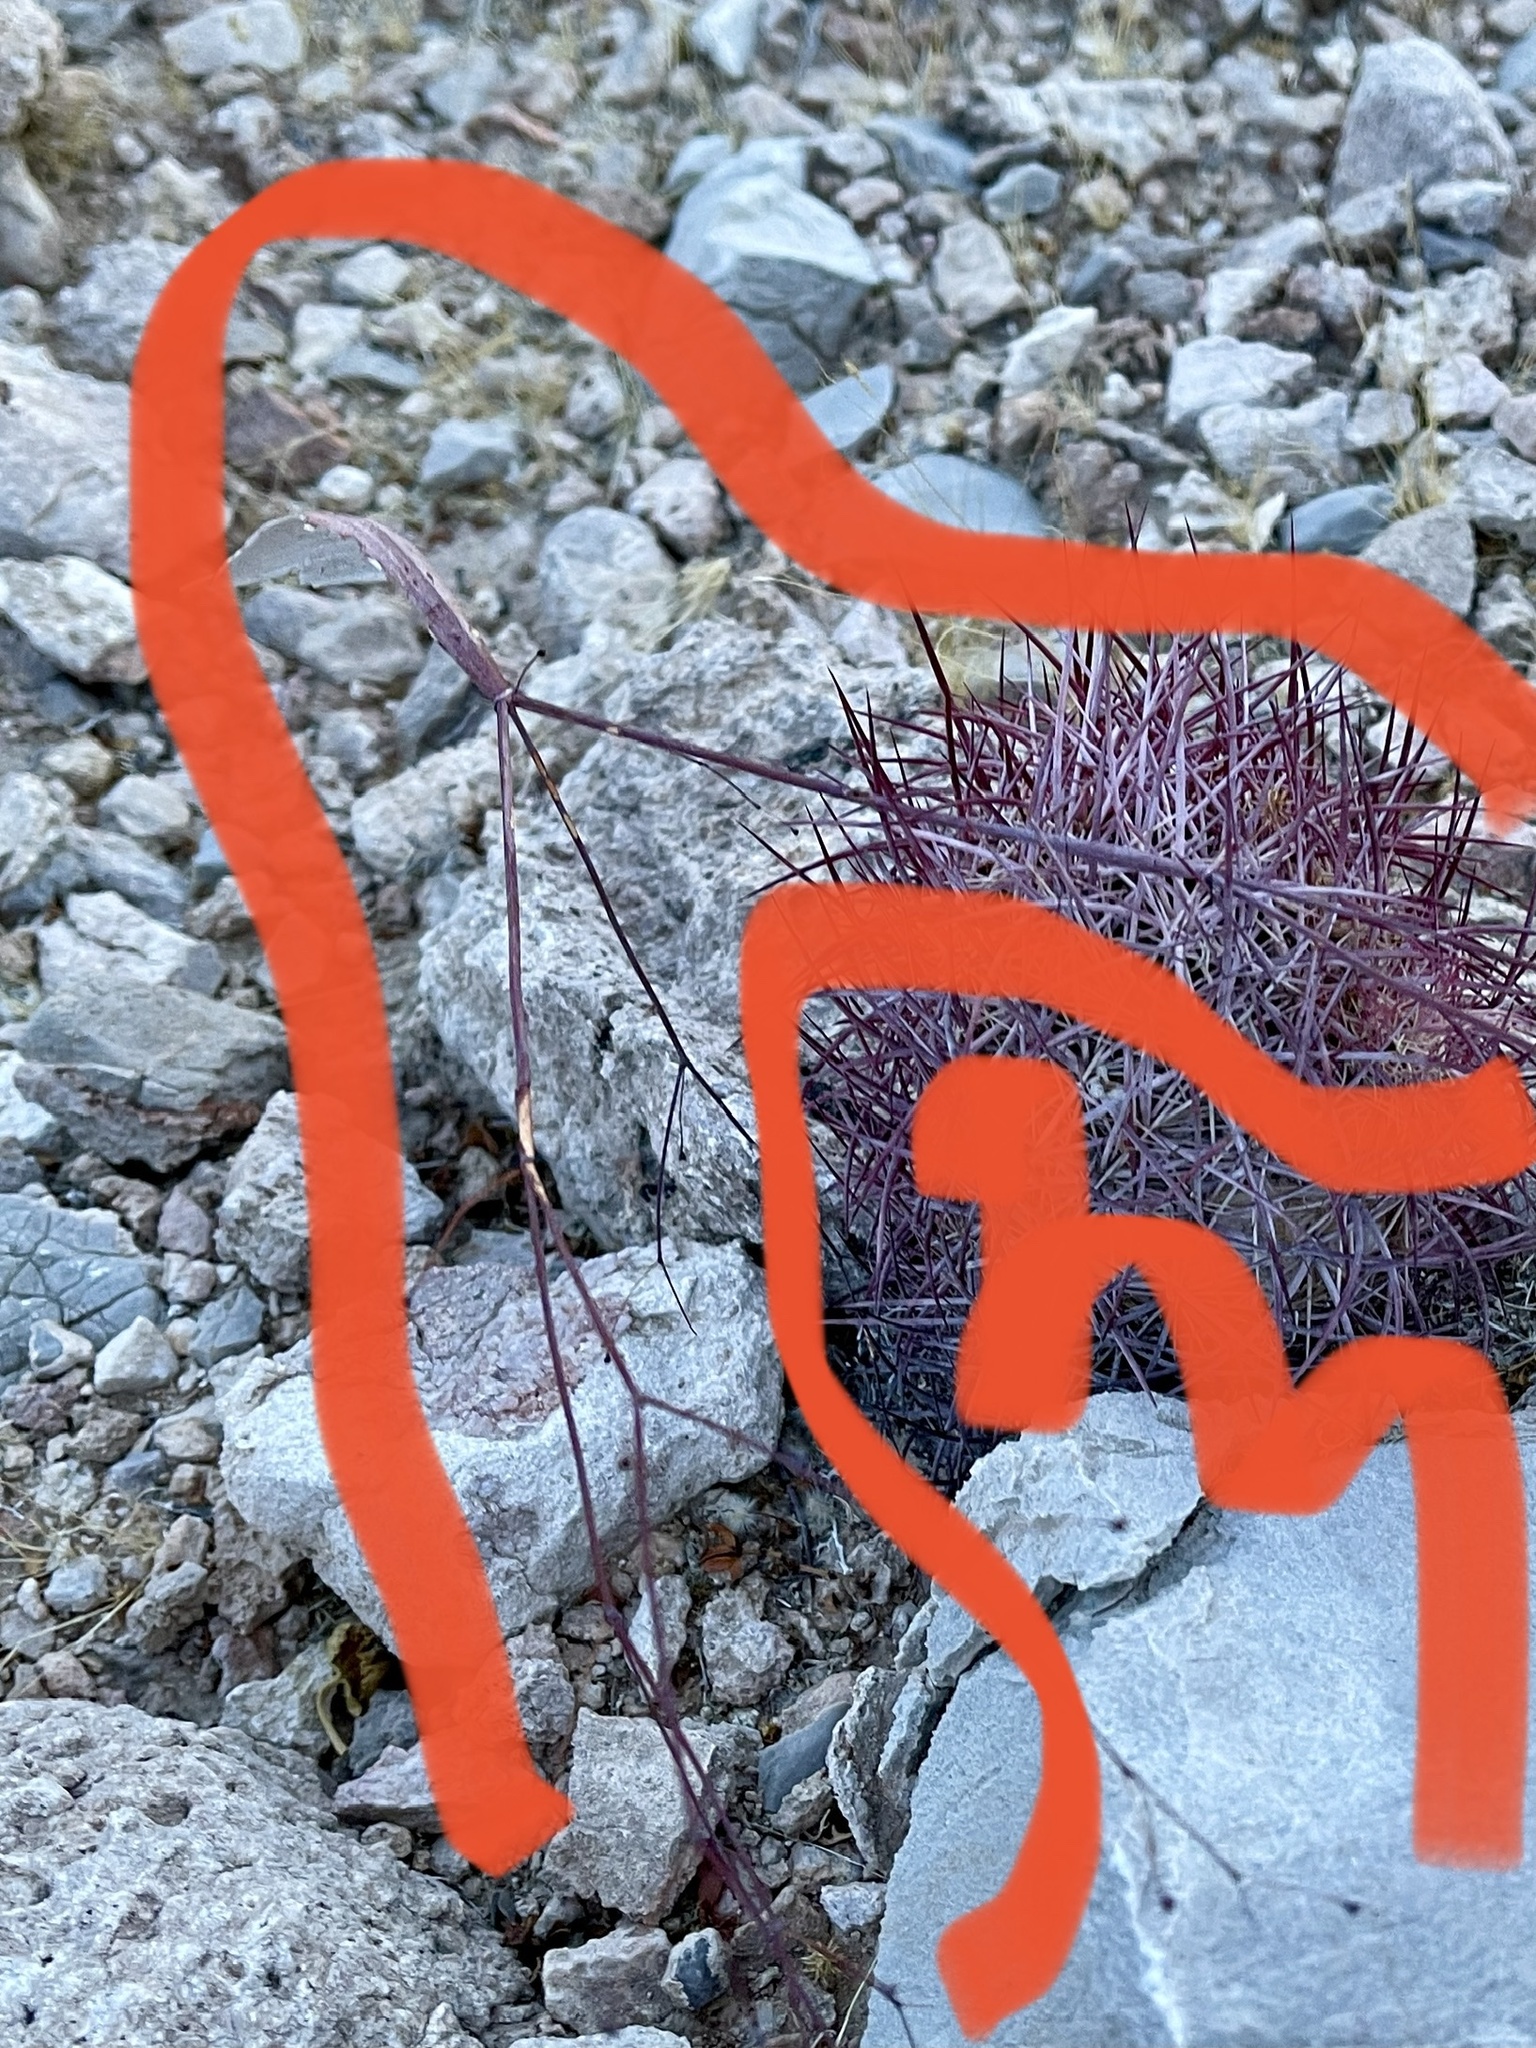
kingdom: Plantae
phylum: Tracheophyta
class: Magnoliopsida
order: Caryophyllales
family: Polygonaceae
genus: Eriogonum
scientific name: Eriogonum inflatum
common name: Desert trumpet
